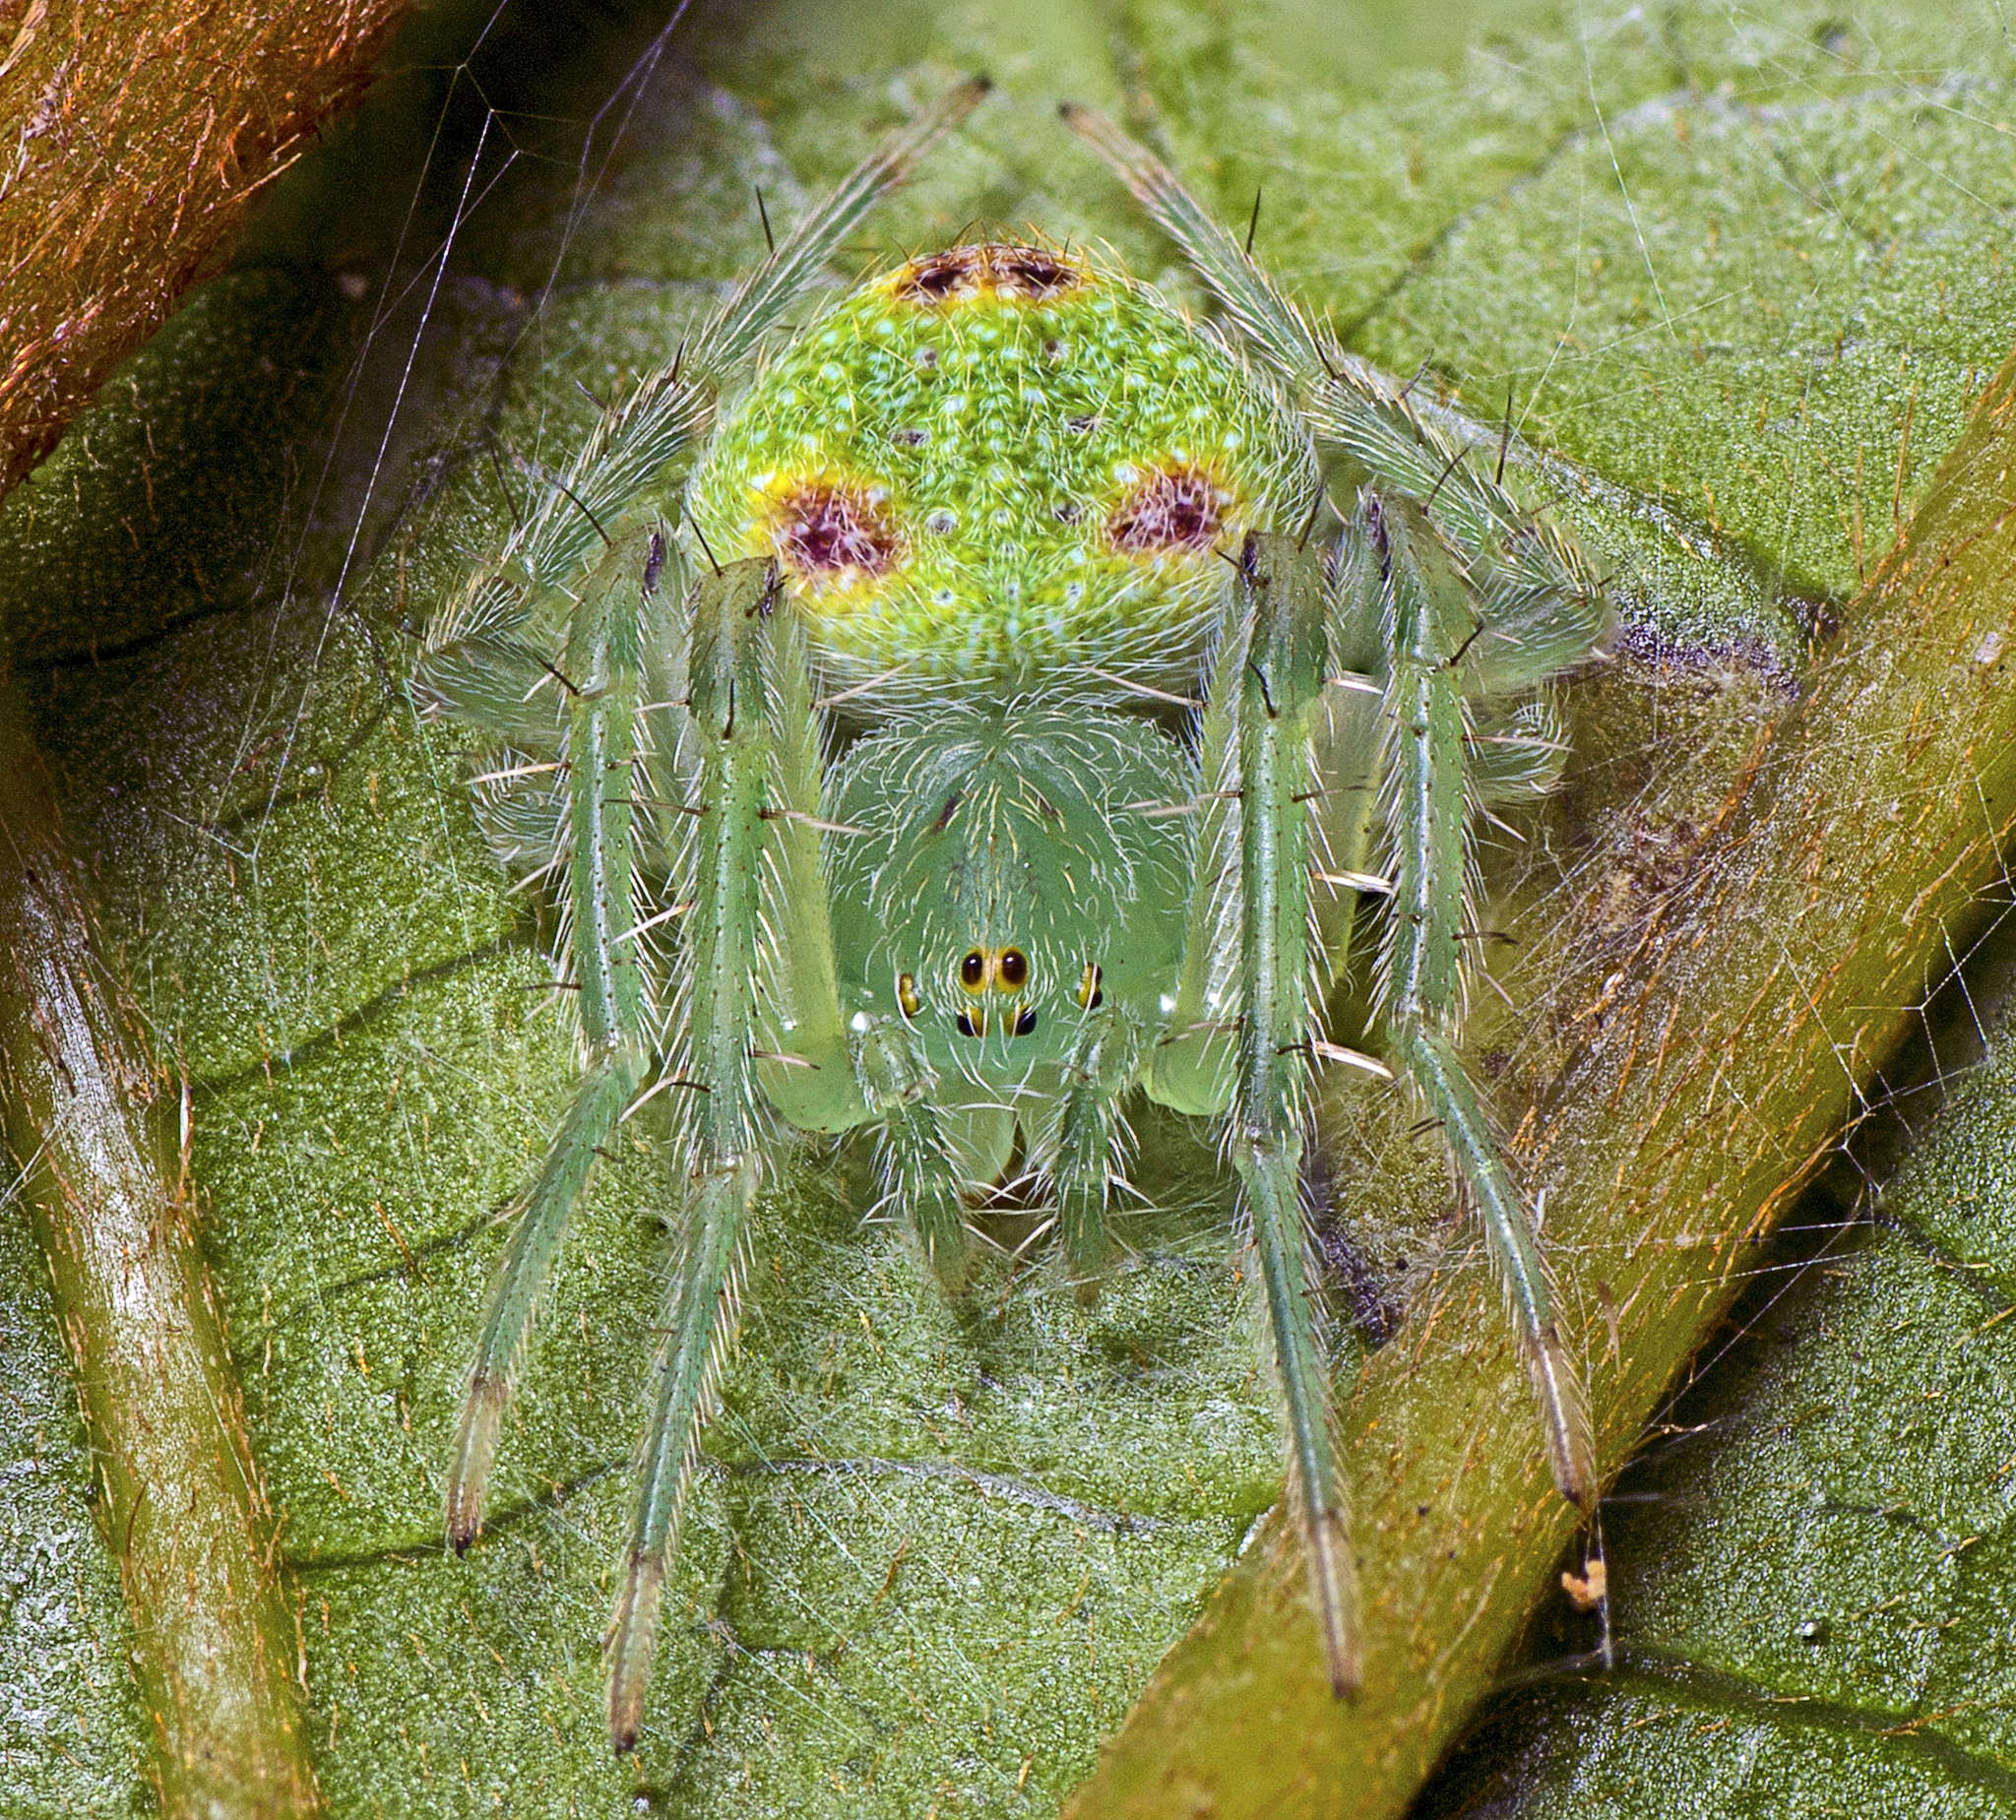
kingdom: Animalia
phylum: Arthropoda
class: Arachnida
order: Araneae
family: Araneidae
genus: Araneus
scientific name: Araneus circulissparsus
